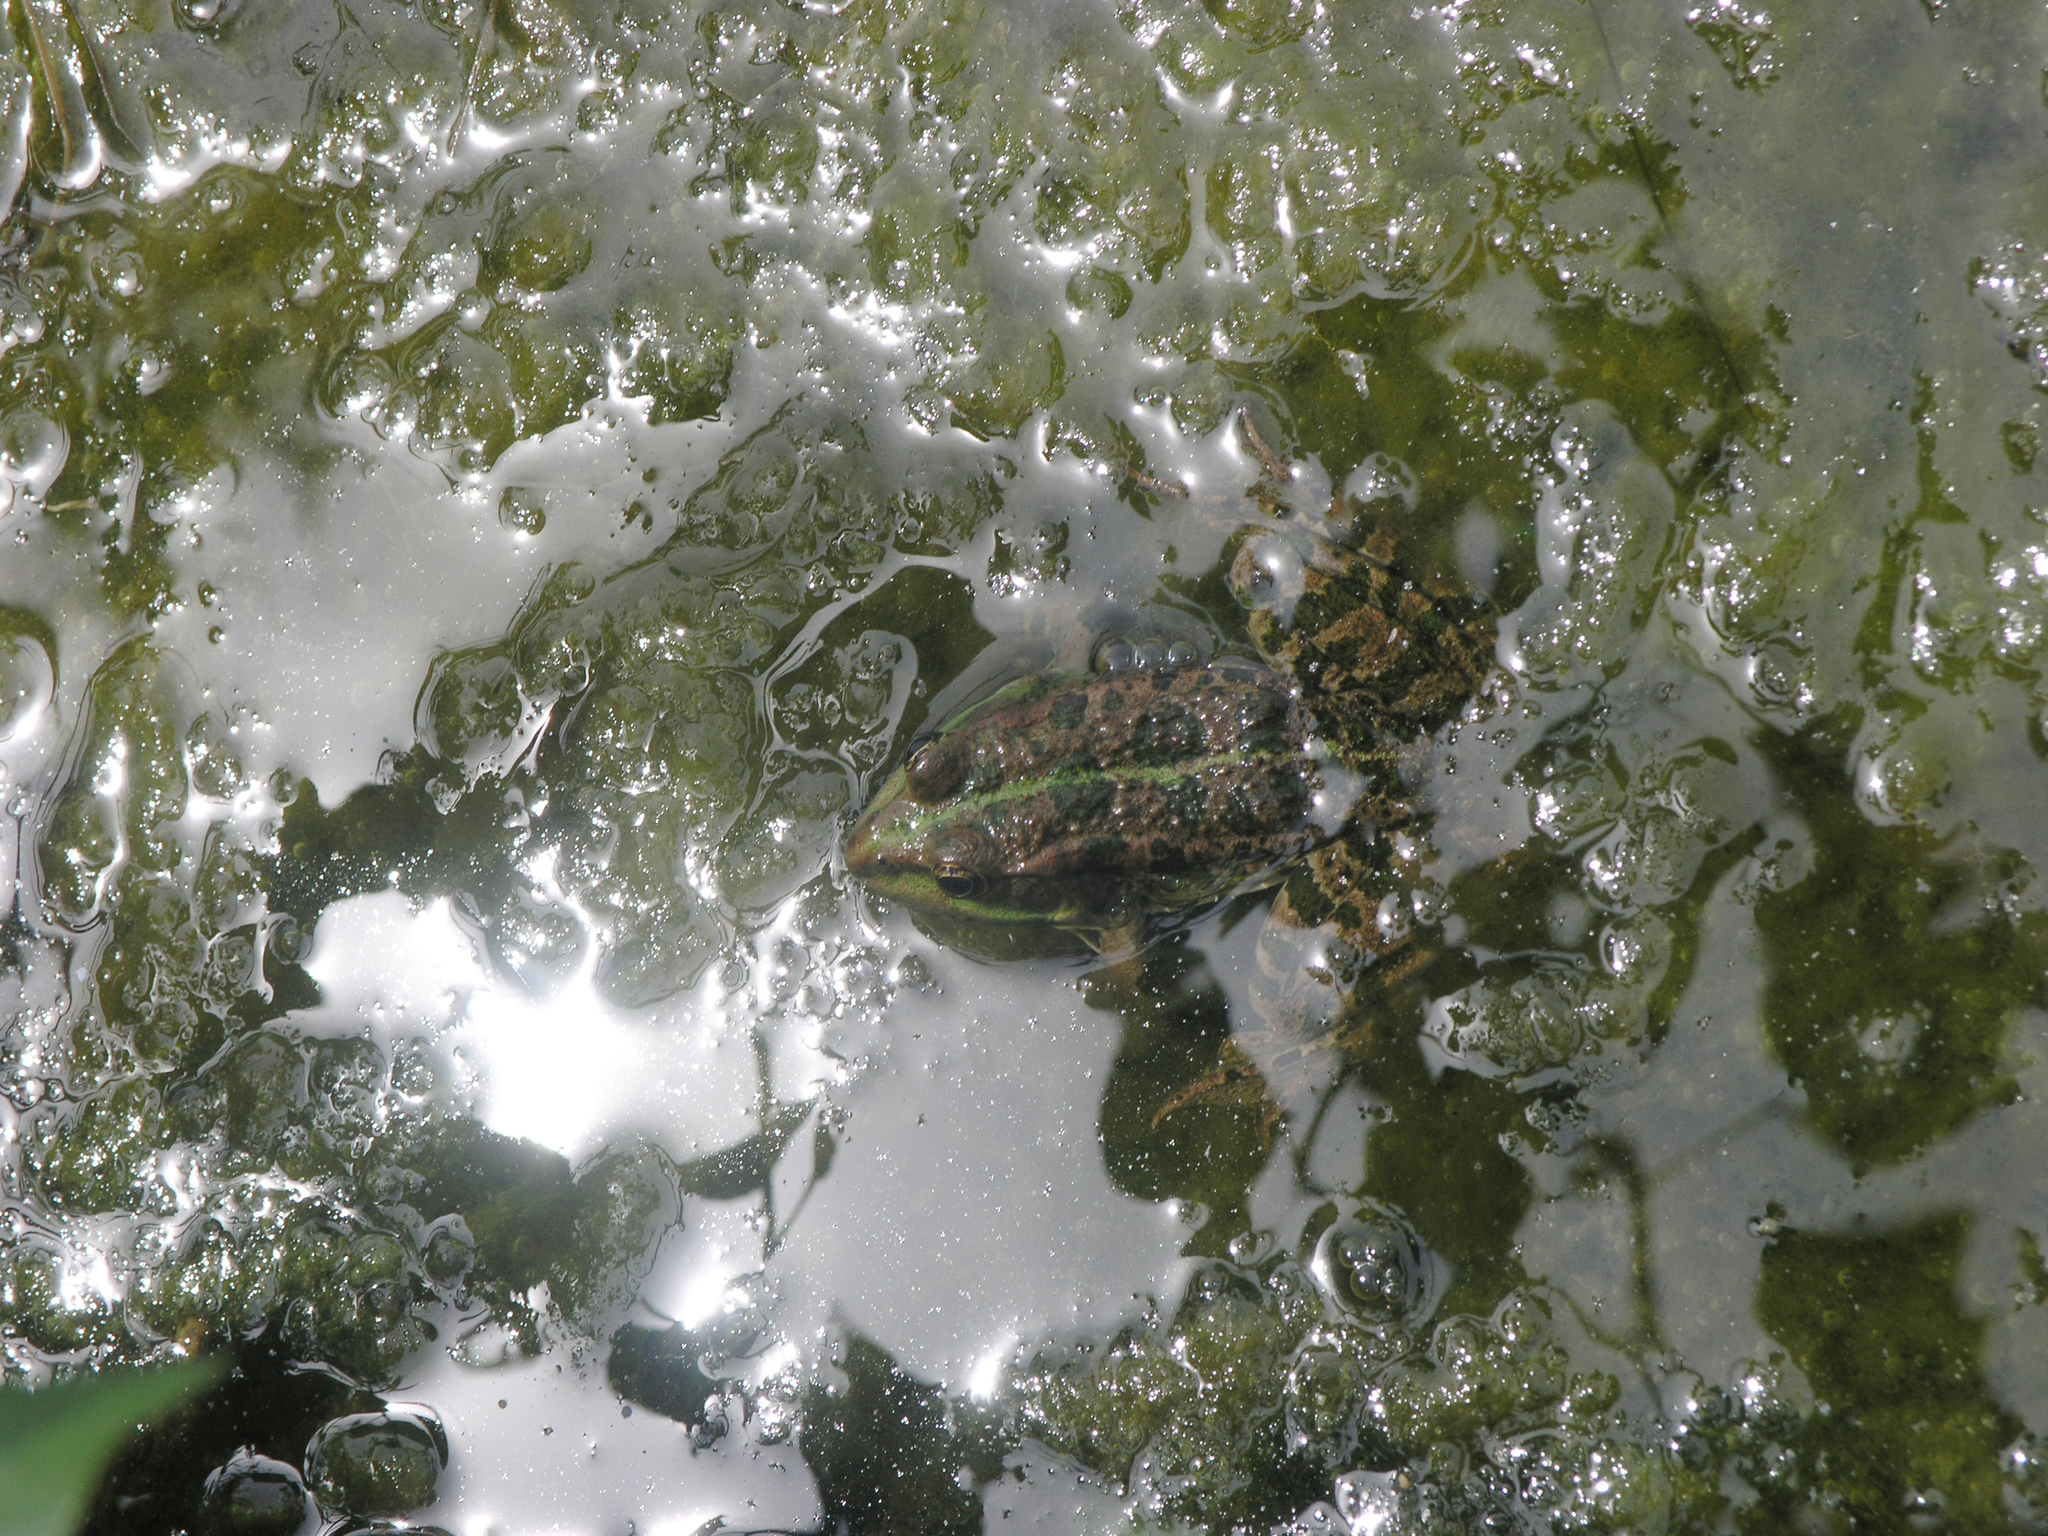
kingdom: Animalia
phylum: Chordata
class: Amphibia
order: Anura
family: Ranidae
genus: Pelophylax
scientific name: Pelophylax
